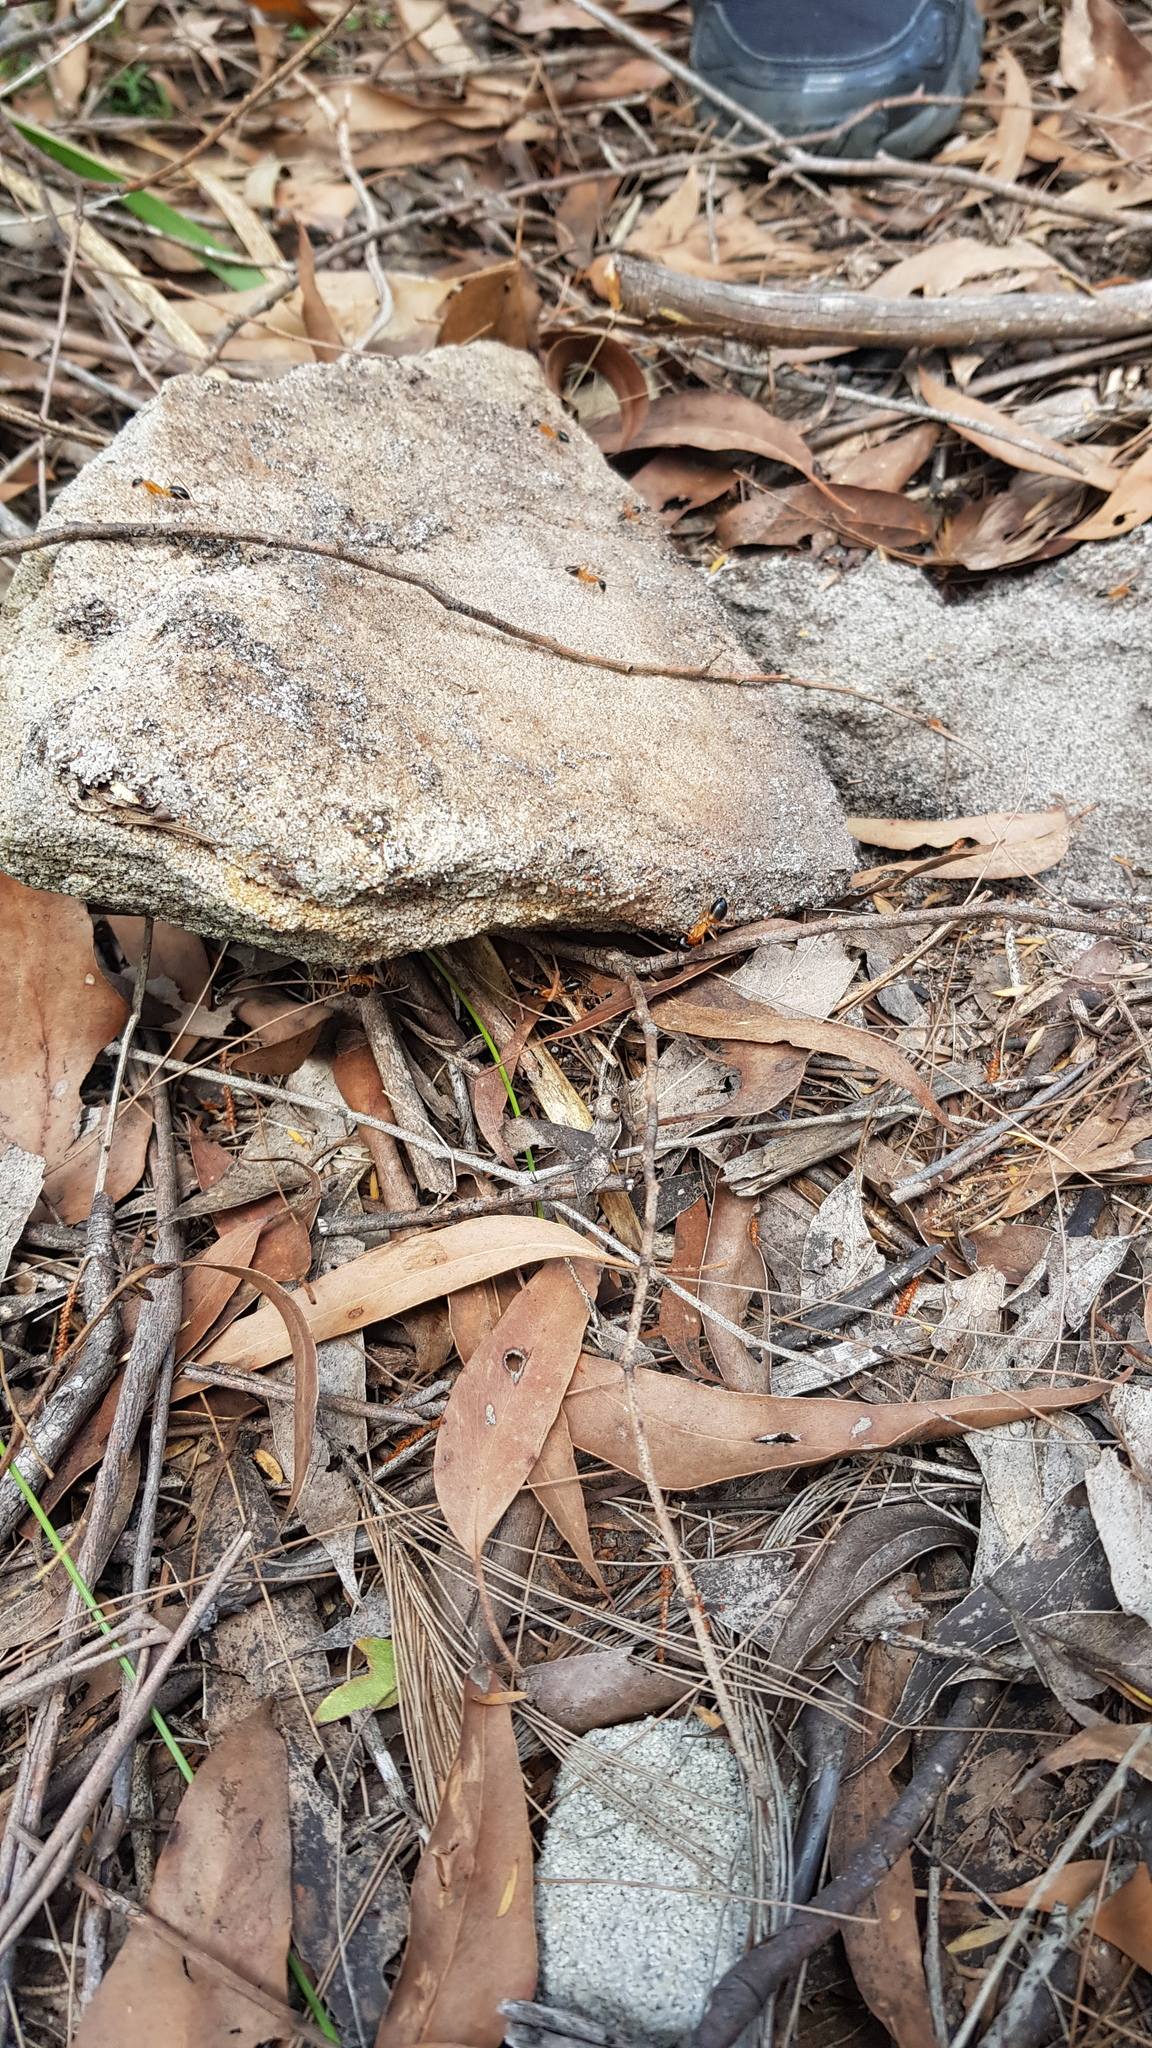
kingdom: Animalia
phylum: Arthropoda
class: Insecta
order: Hymenoptera
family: Formicidae
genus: Camponotus
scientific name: Camponotus consobrinus
